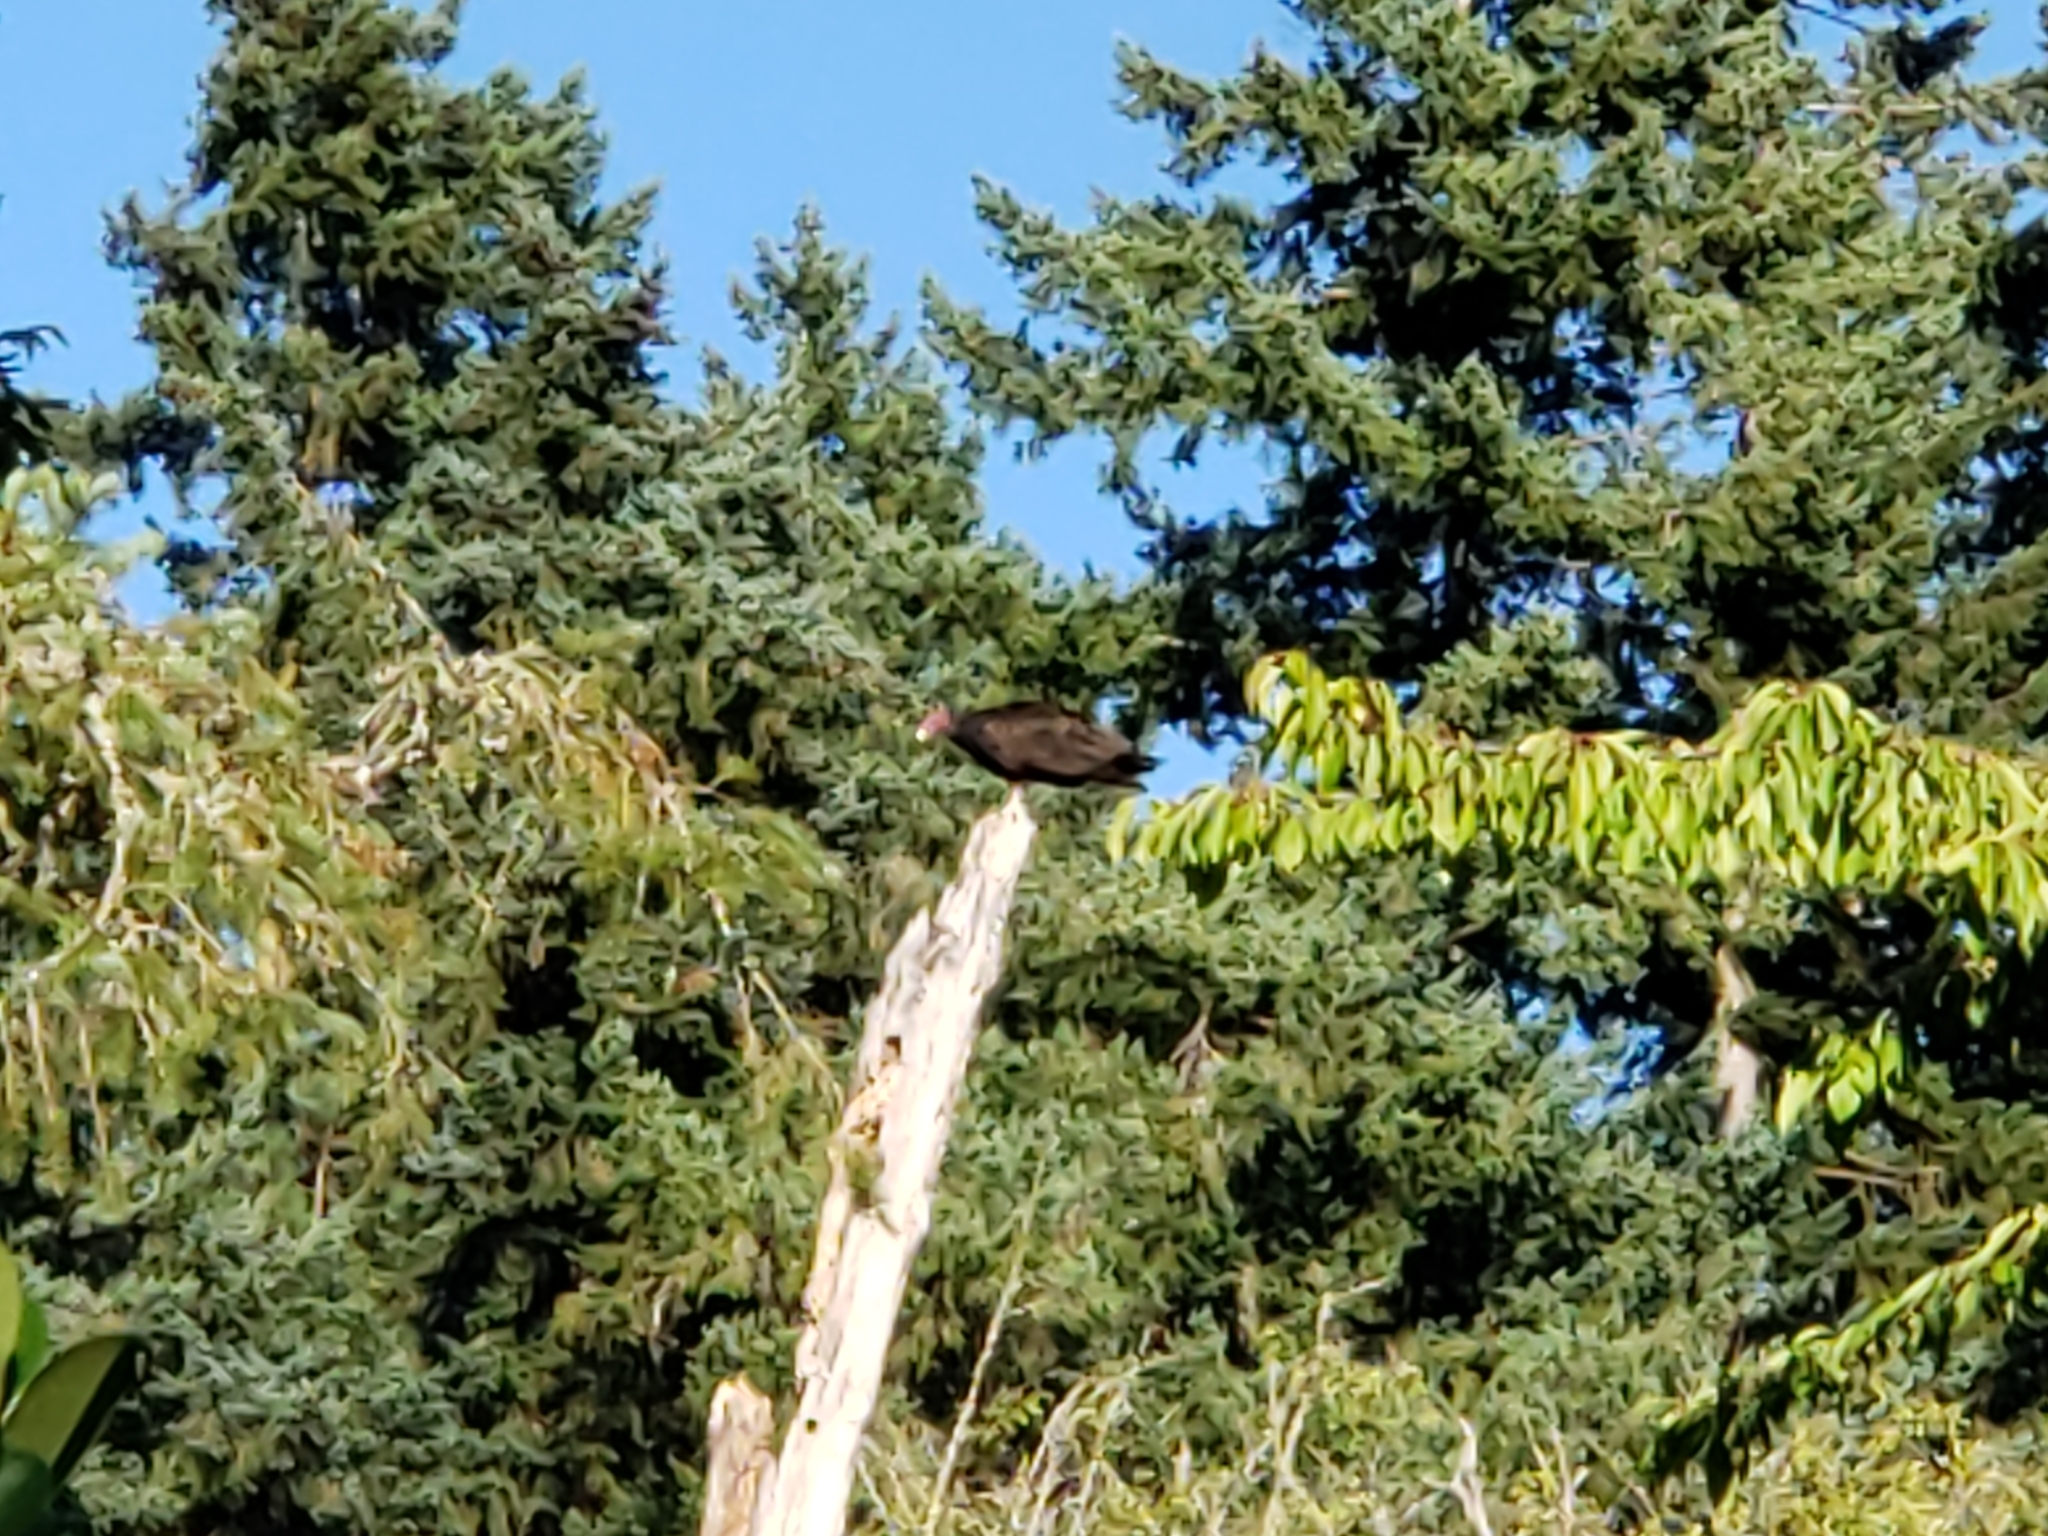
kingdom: Animalia
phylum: Chordata
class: Aves
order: Accipitriformes
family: Cathartidae
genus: Cathartes
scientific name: Cathartes aura
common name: Turkey vulture
